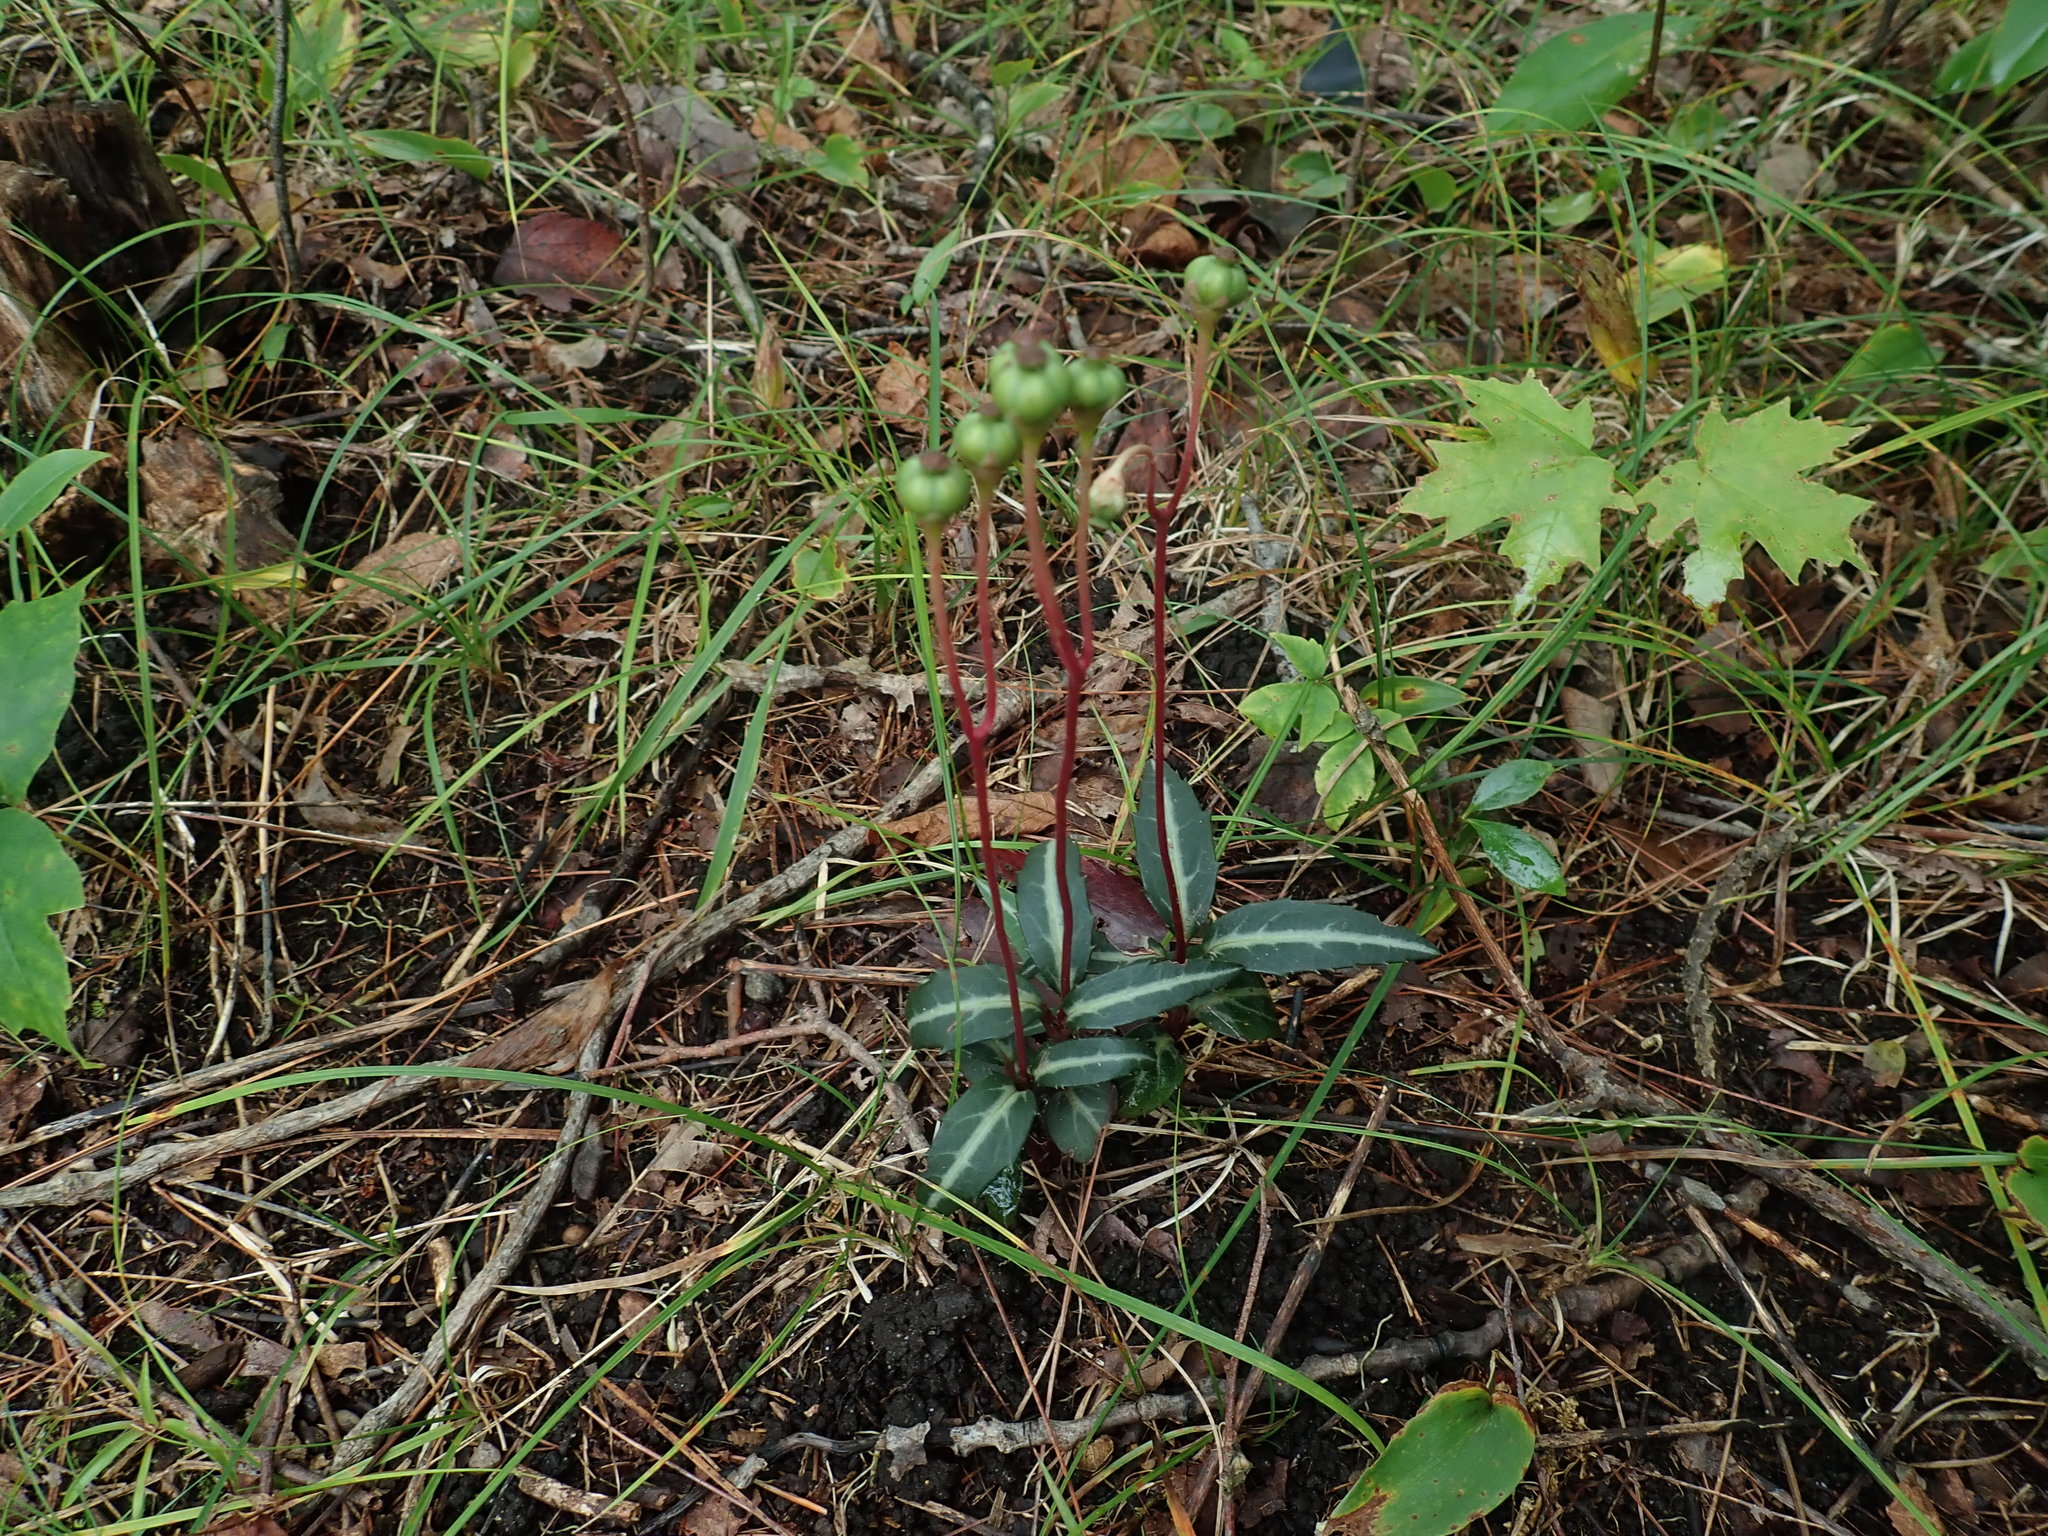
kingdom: Plantae
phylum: Tracheophyta
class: Magnoliopsida
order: Ericales
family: Ericaceae
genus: Chimaphila
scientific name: Chimaphila maculata
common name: Spotted pipsissewa
